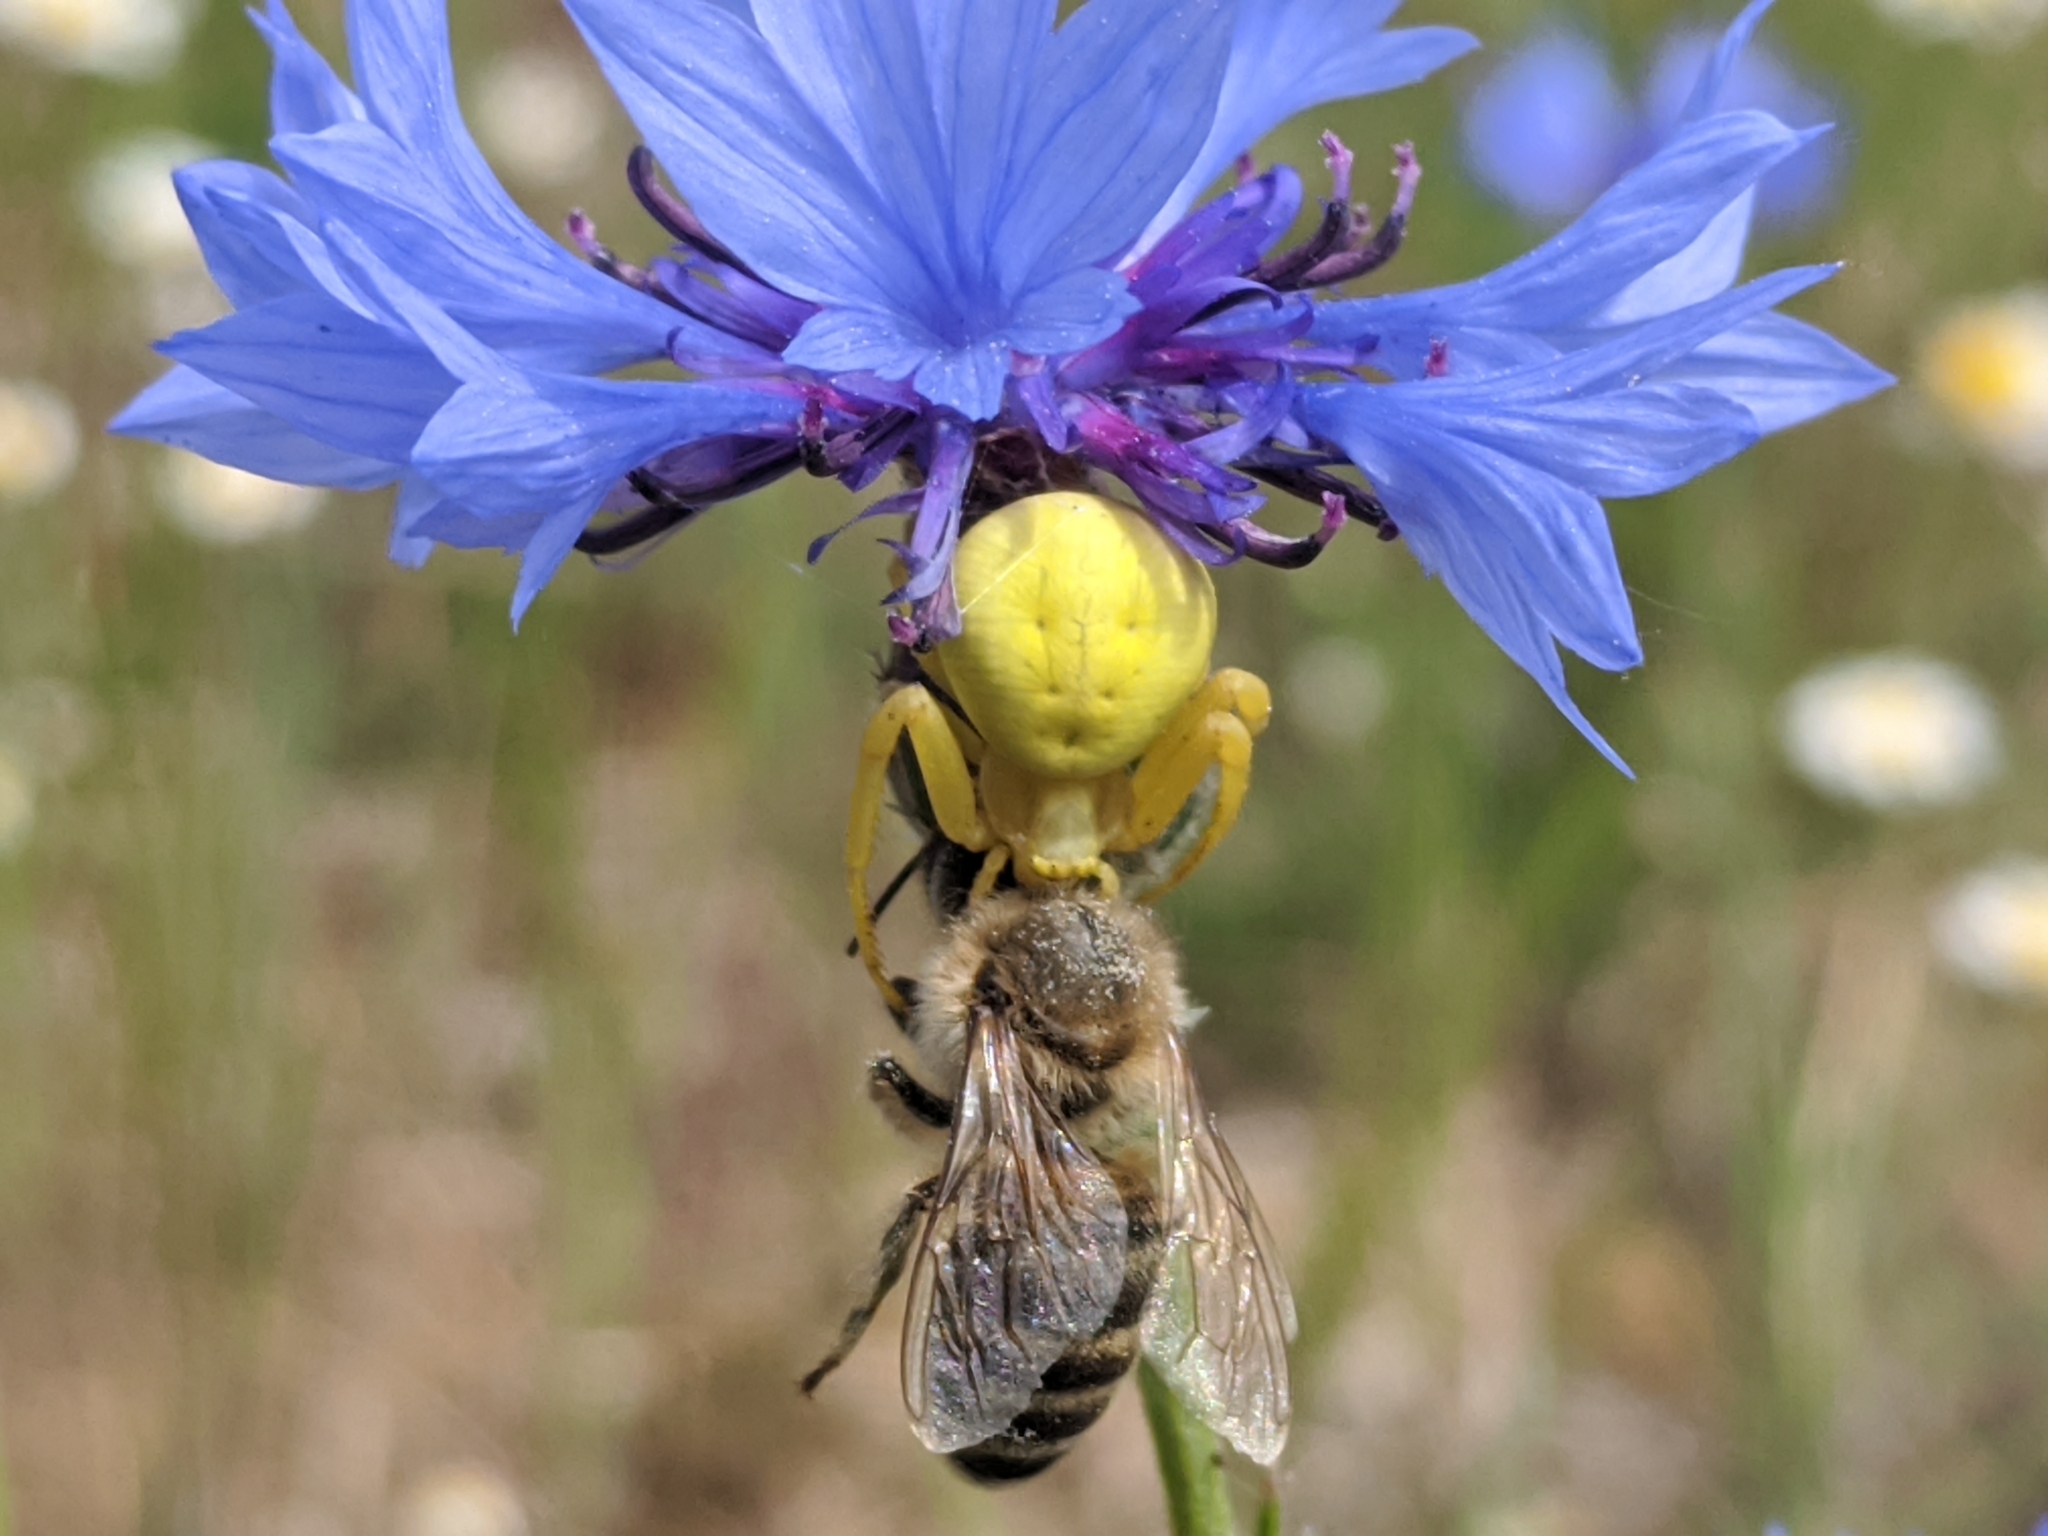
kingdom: Animalia
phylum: Arthropoda
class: Arachnida
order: Araneae
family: Thomisidae
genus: Misumena
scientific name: Misumena vatia
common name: Goldenrod crab spider
